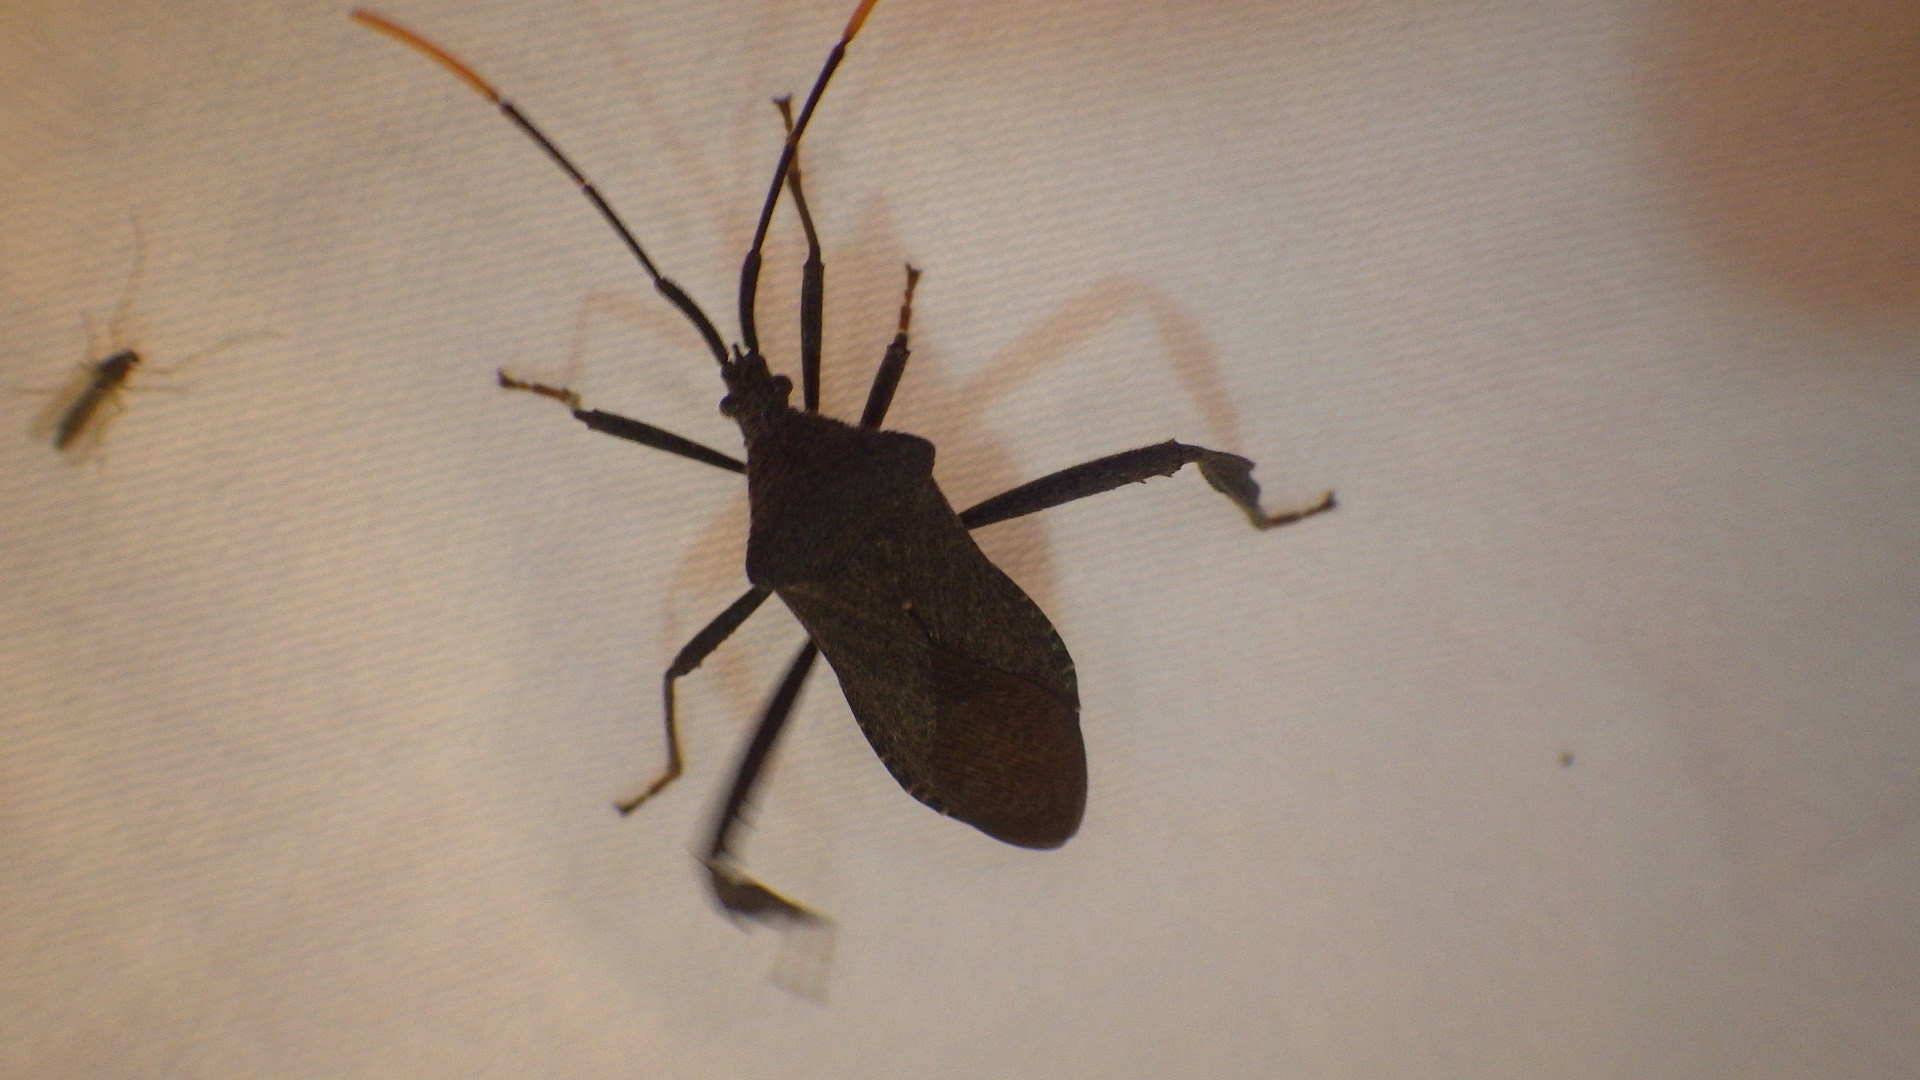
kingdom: Animalia
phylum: Arthropoda
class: Insecta
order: Hemiptera
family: Coreidae
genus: Acanthocephala
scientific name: Acanthocephala terminalis
